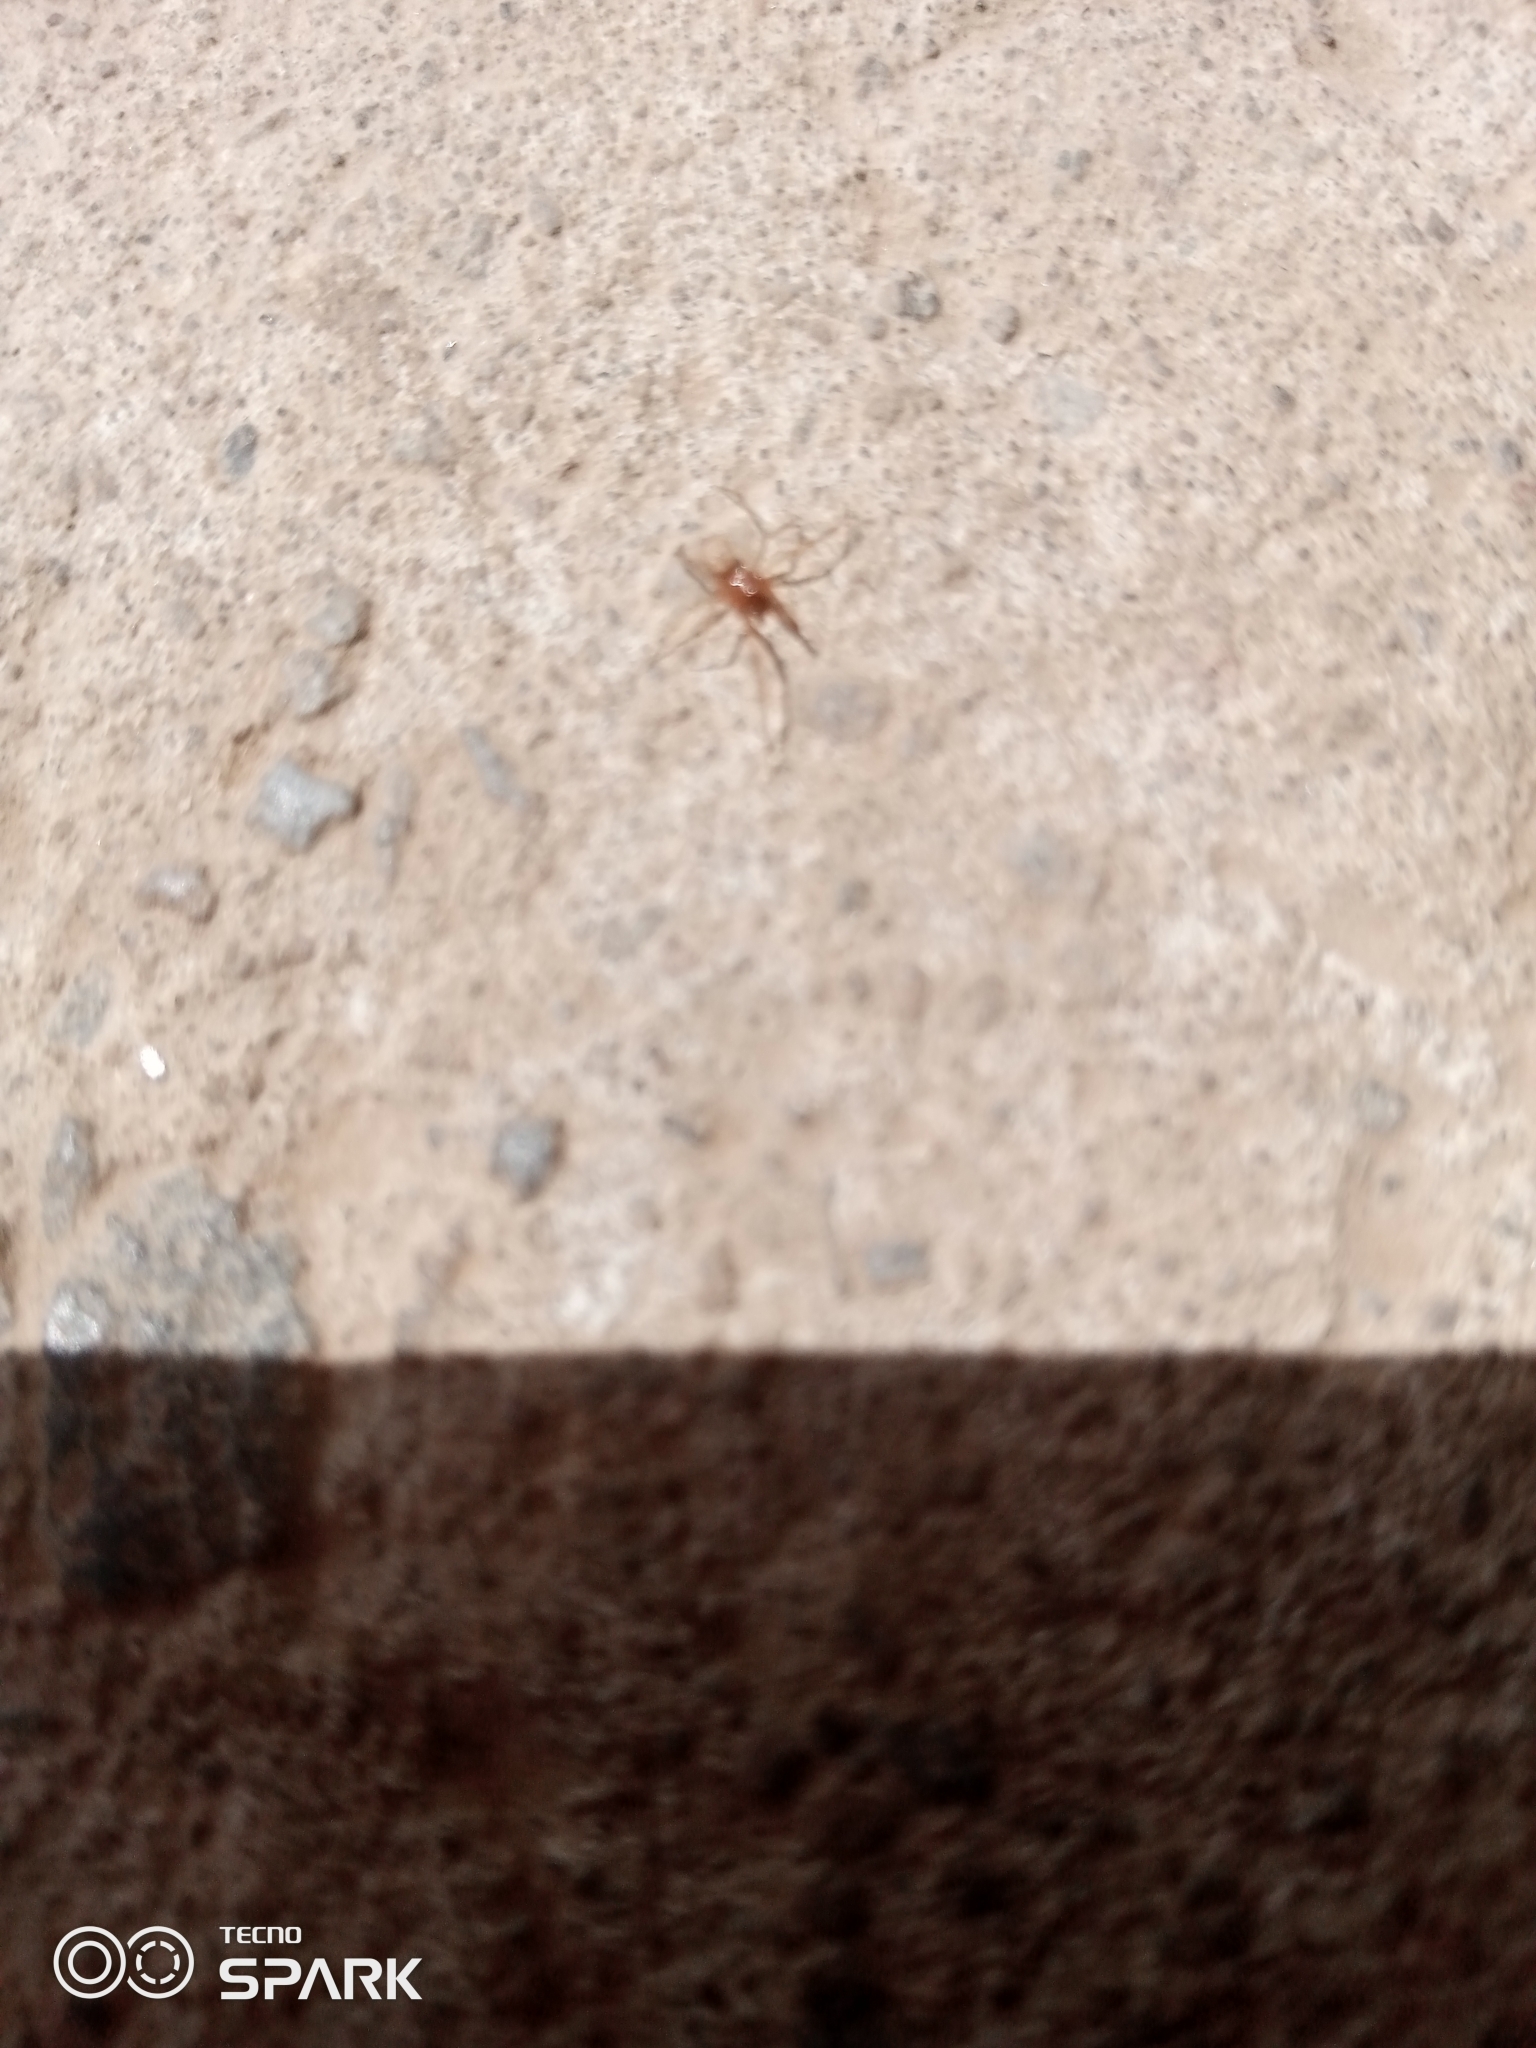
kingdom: Animalia
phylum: Arthropoda
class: Arachnida
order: Araneae
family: Theridiidae
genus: Nesticodes
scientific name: Nesticodes rufipes
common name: Cobweb spiders
